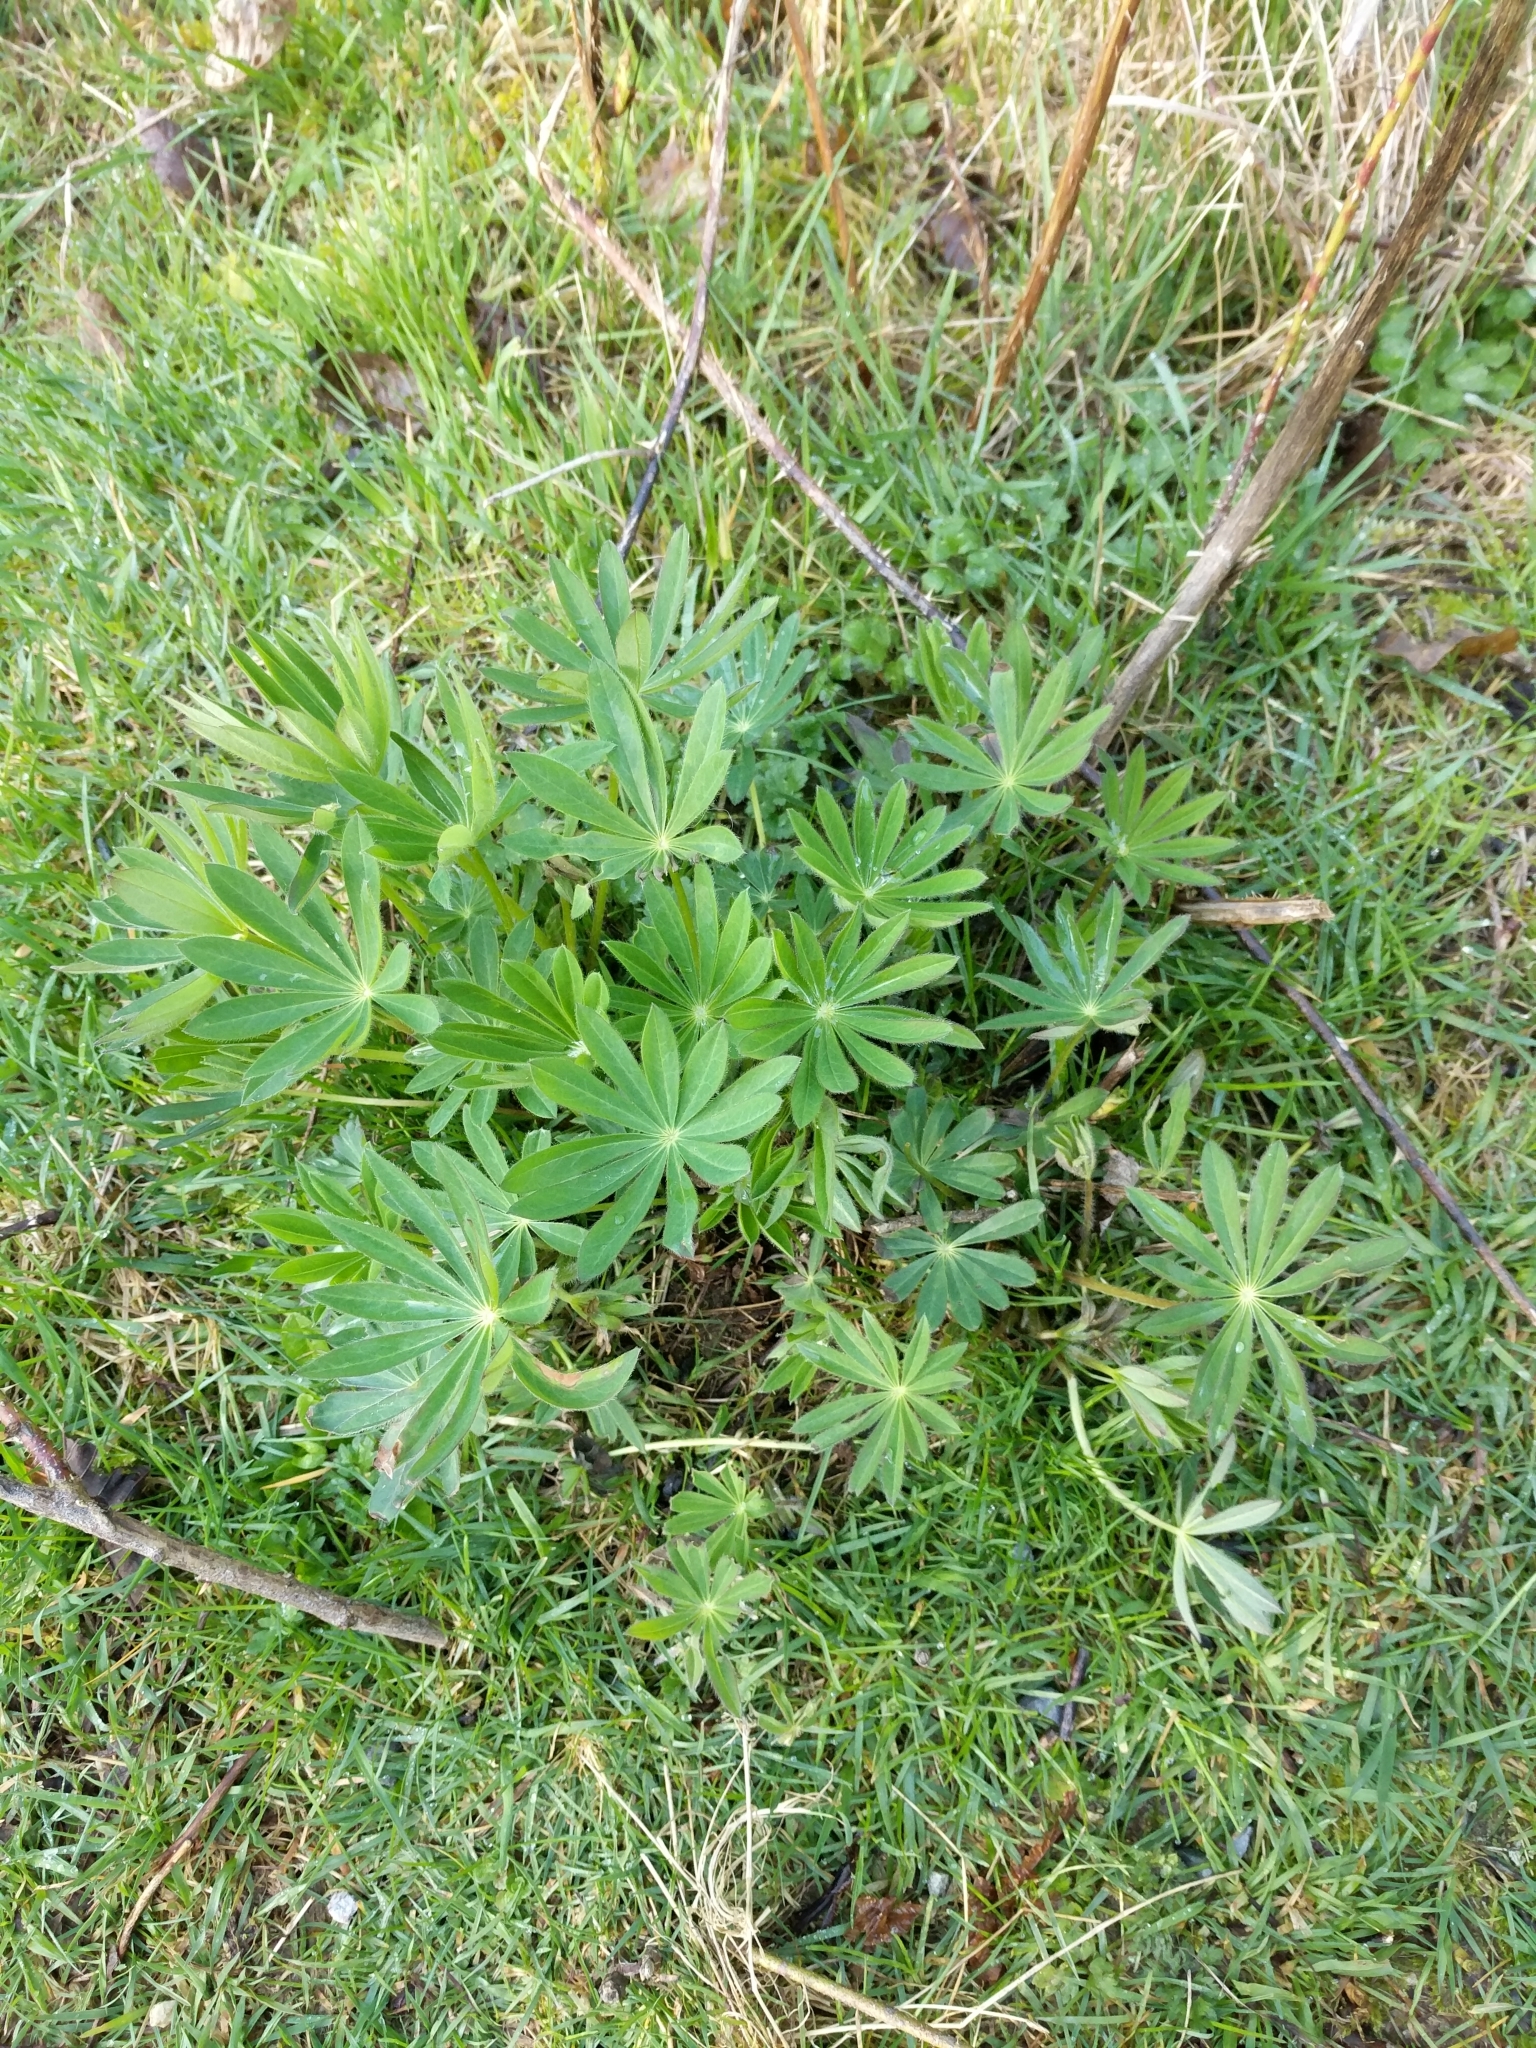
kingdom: Plantae
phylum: Tracheophyta
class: Magnoliopsida
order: Fabales
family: Fabaceae
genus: Lupinus
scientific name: Lupinus polyphyllus
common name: Garden lupin
